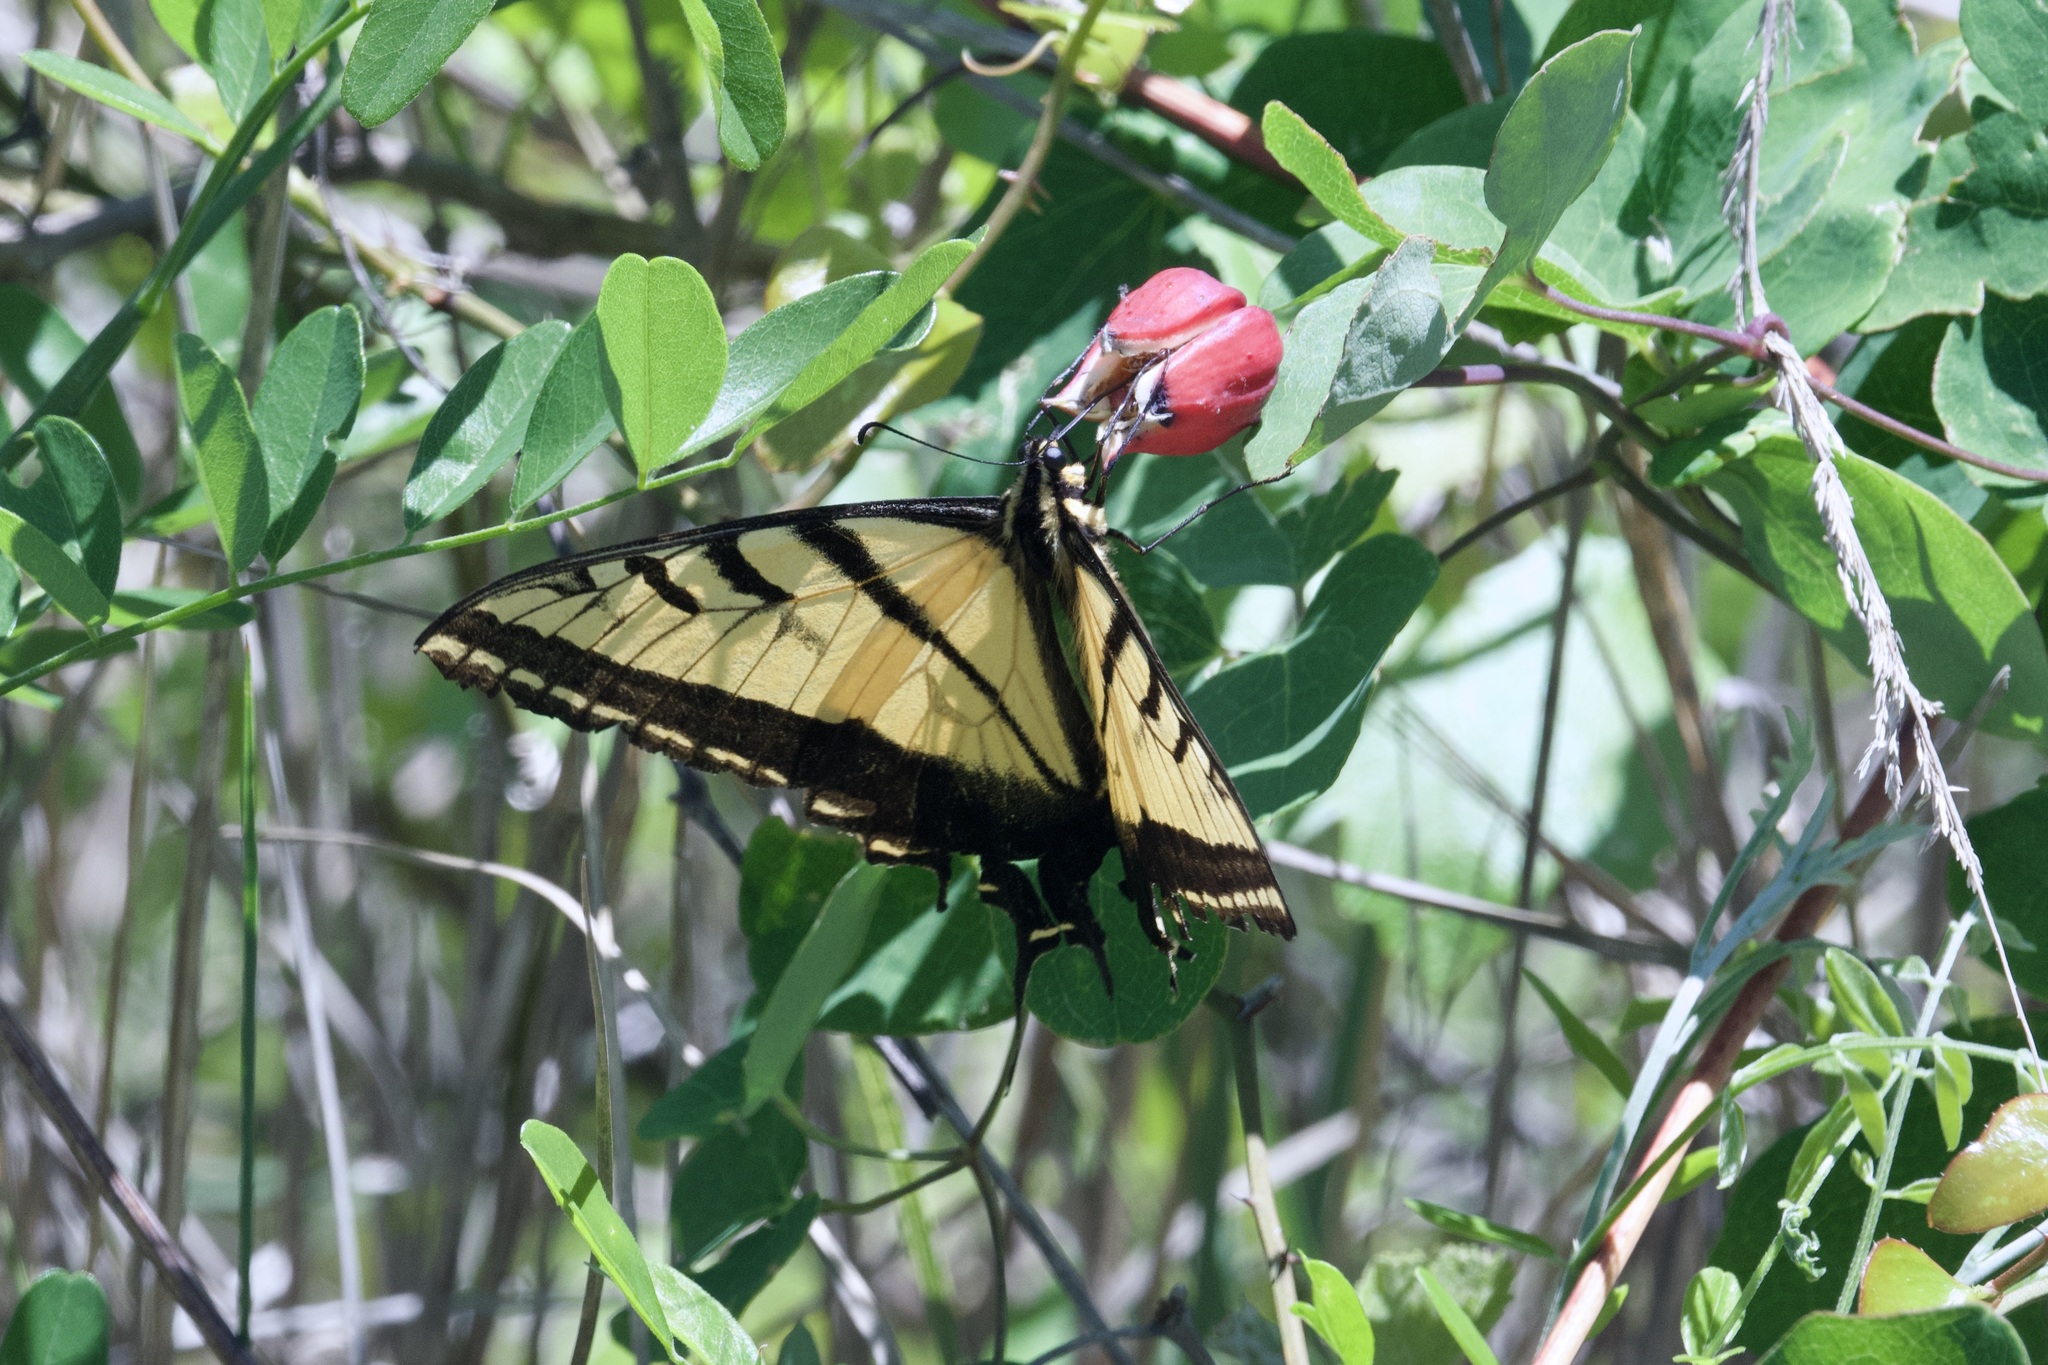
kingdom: Animalia
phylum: Arthropoda
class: Insecta
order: Lepidoptera
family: Papilionidae
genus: Papilio
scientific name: Papilio multicaudata
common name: Two-tailed tiger swallowtail
